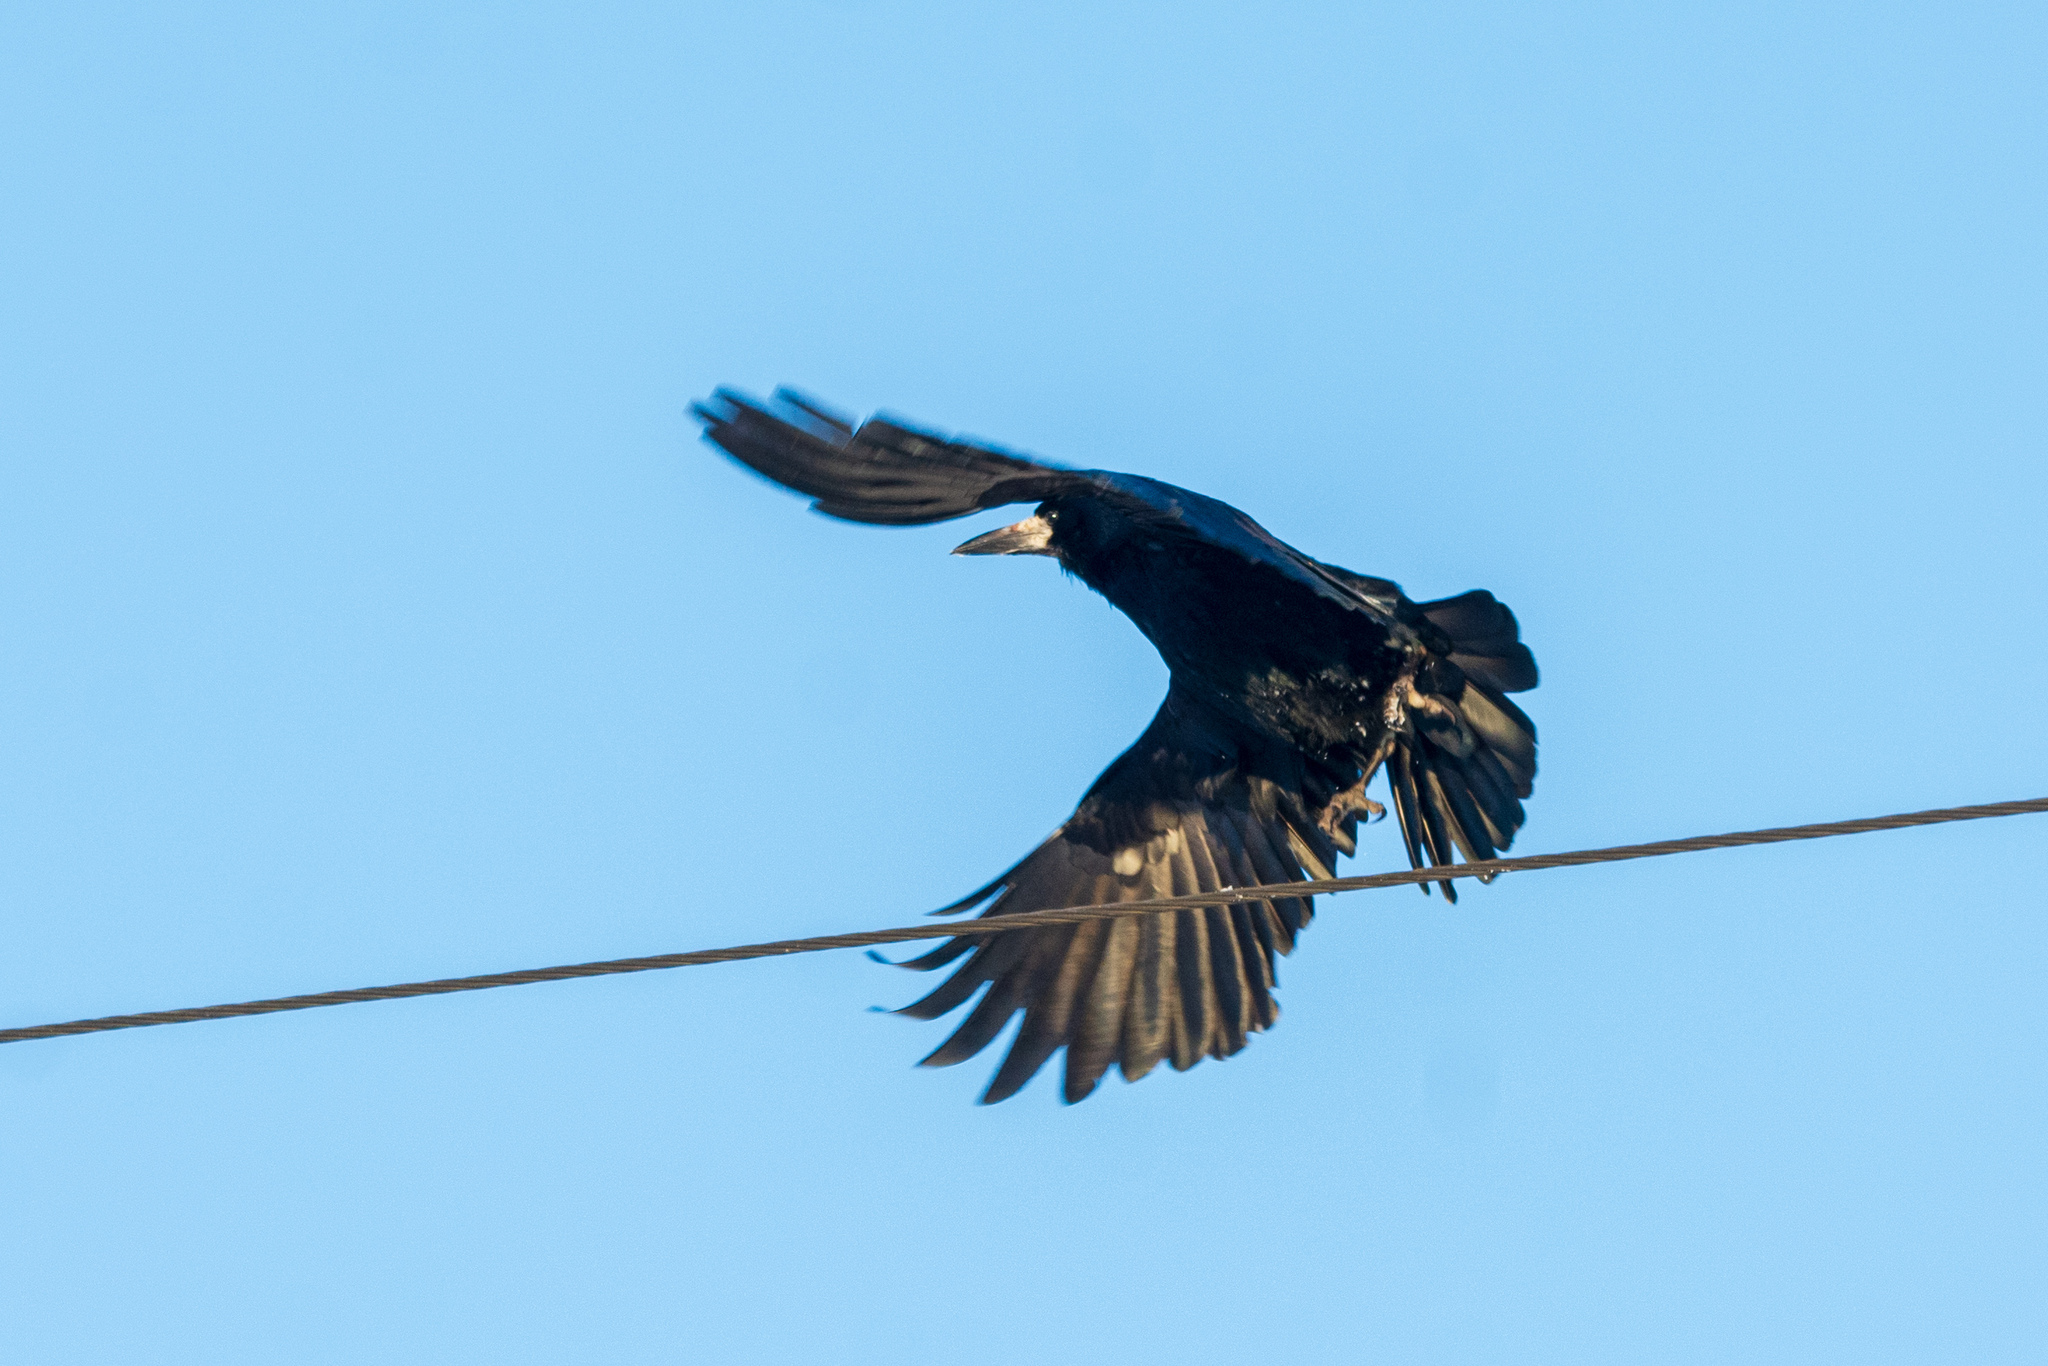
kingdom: Animalia
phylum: Chordata
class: Aves
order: Passeriformes
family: Corvidae
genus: Corvus
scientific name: Corvus frugilegus
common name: Rook
